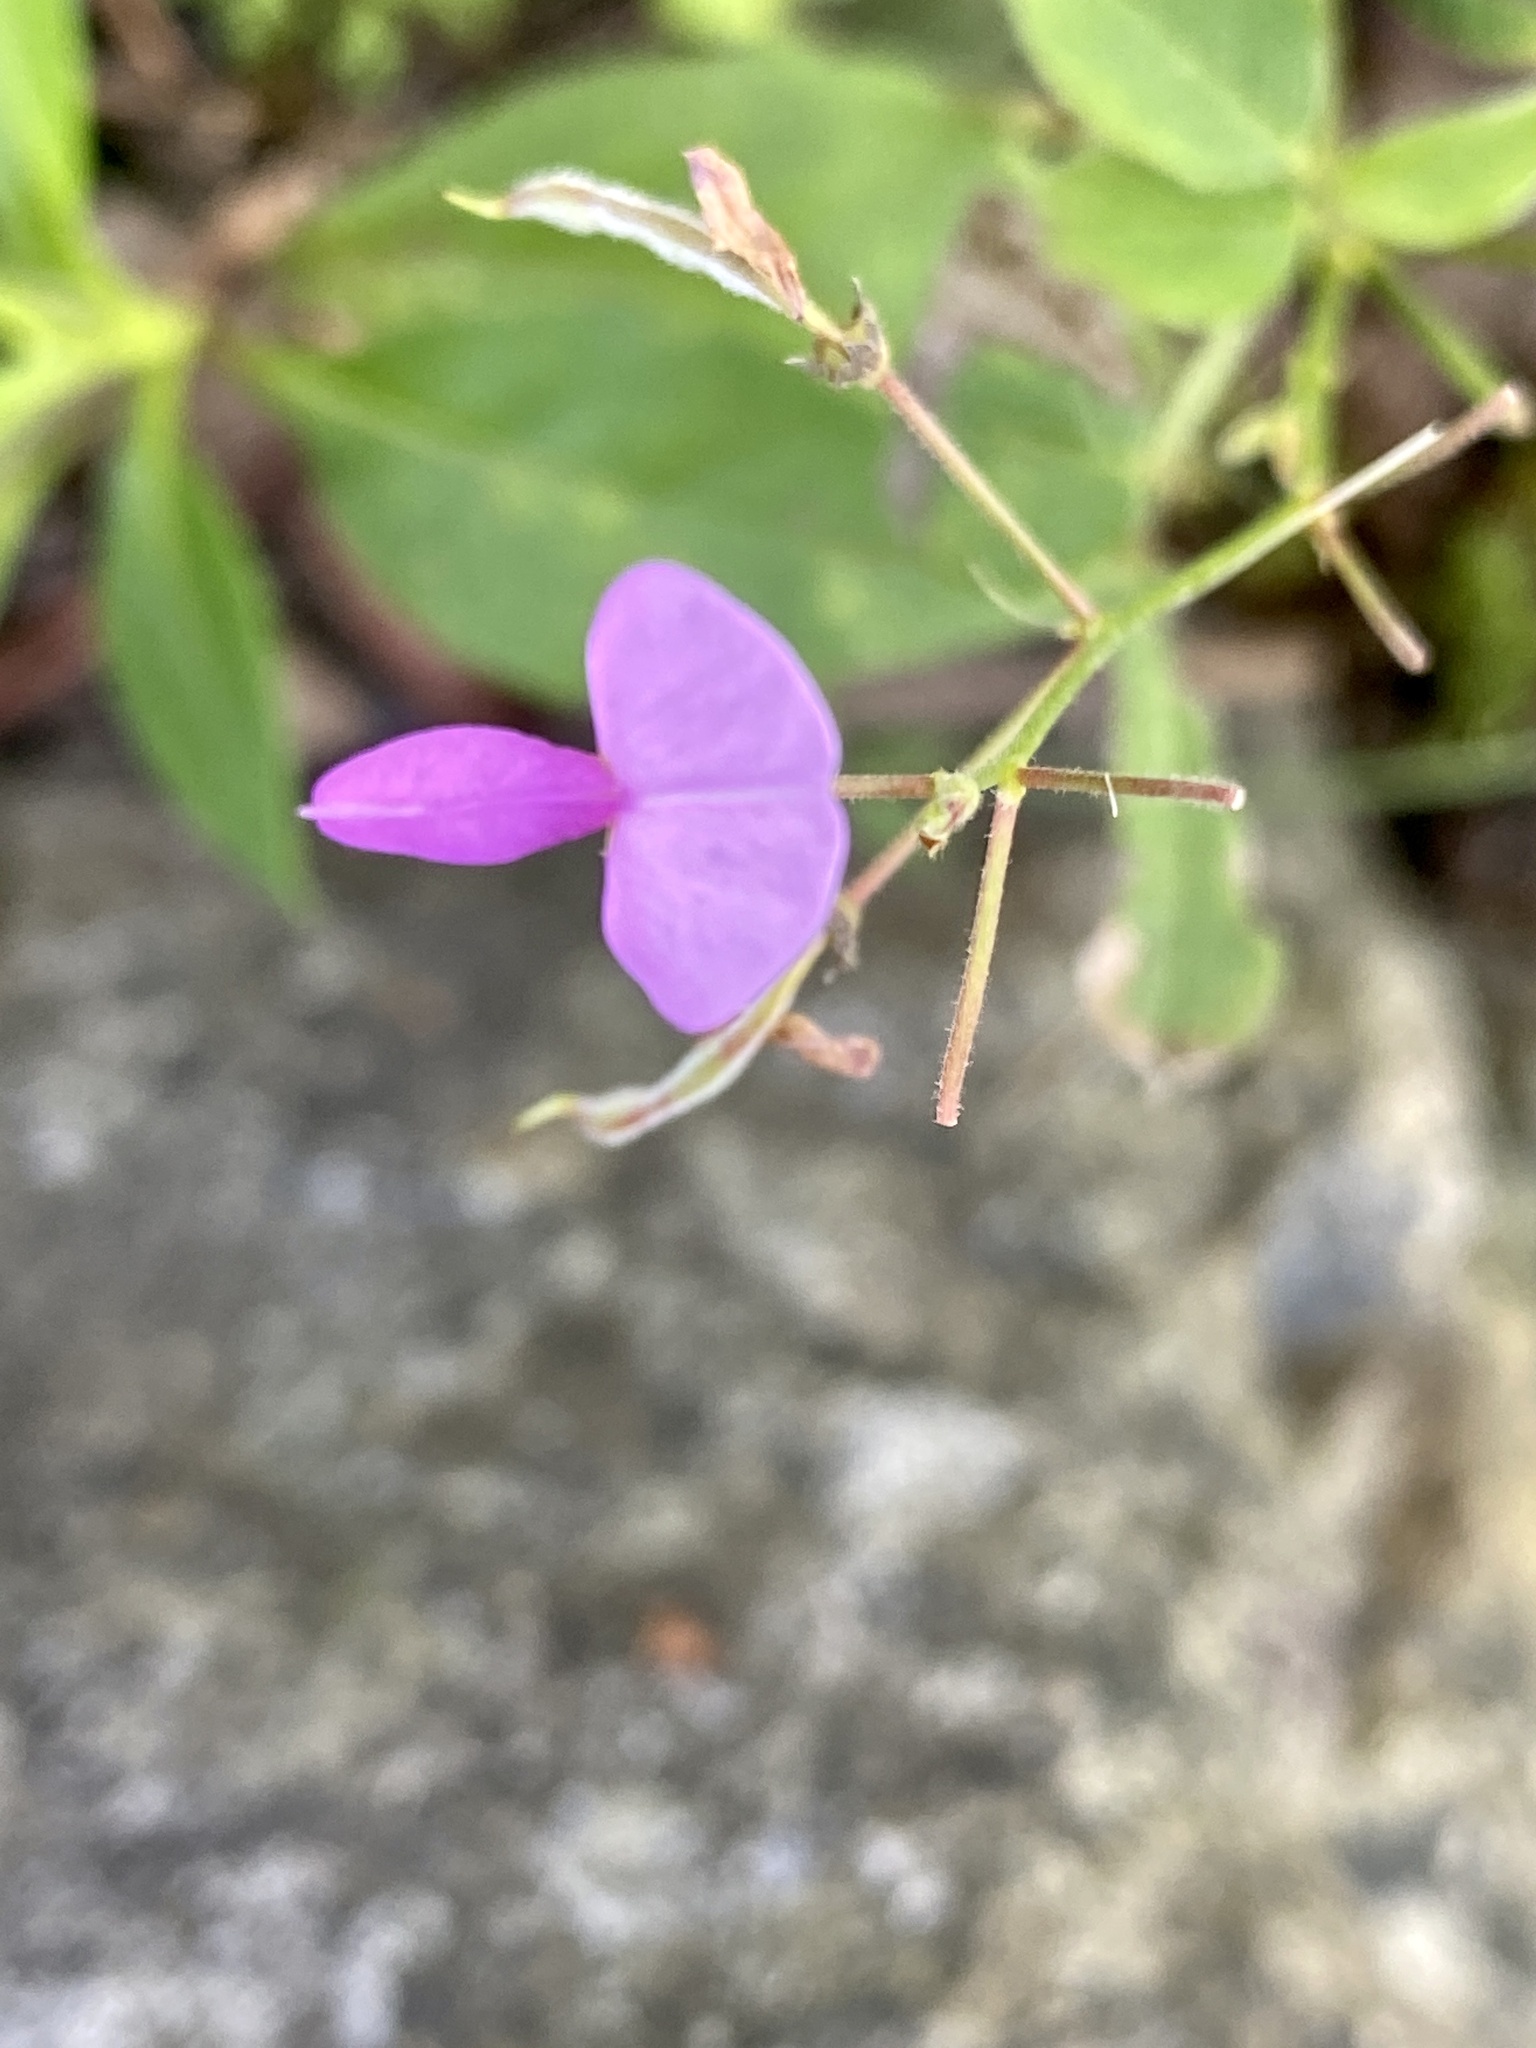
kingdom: Plantae
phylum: Tracheophyta
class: Magnoliopsida
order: Fabales
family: Fabaceae
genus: Desmodium
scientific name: Desmodium
